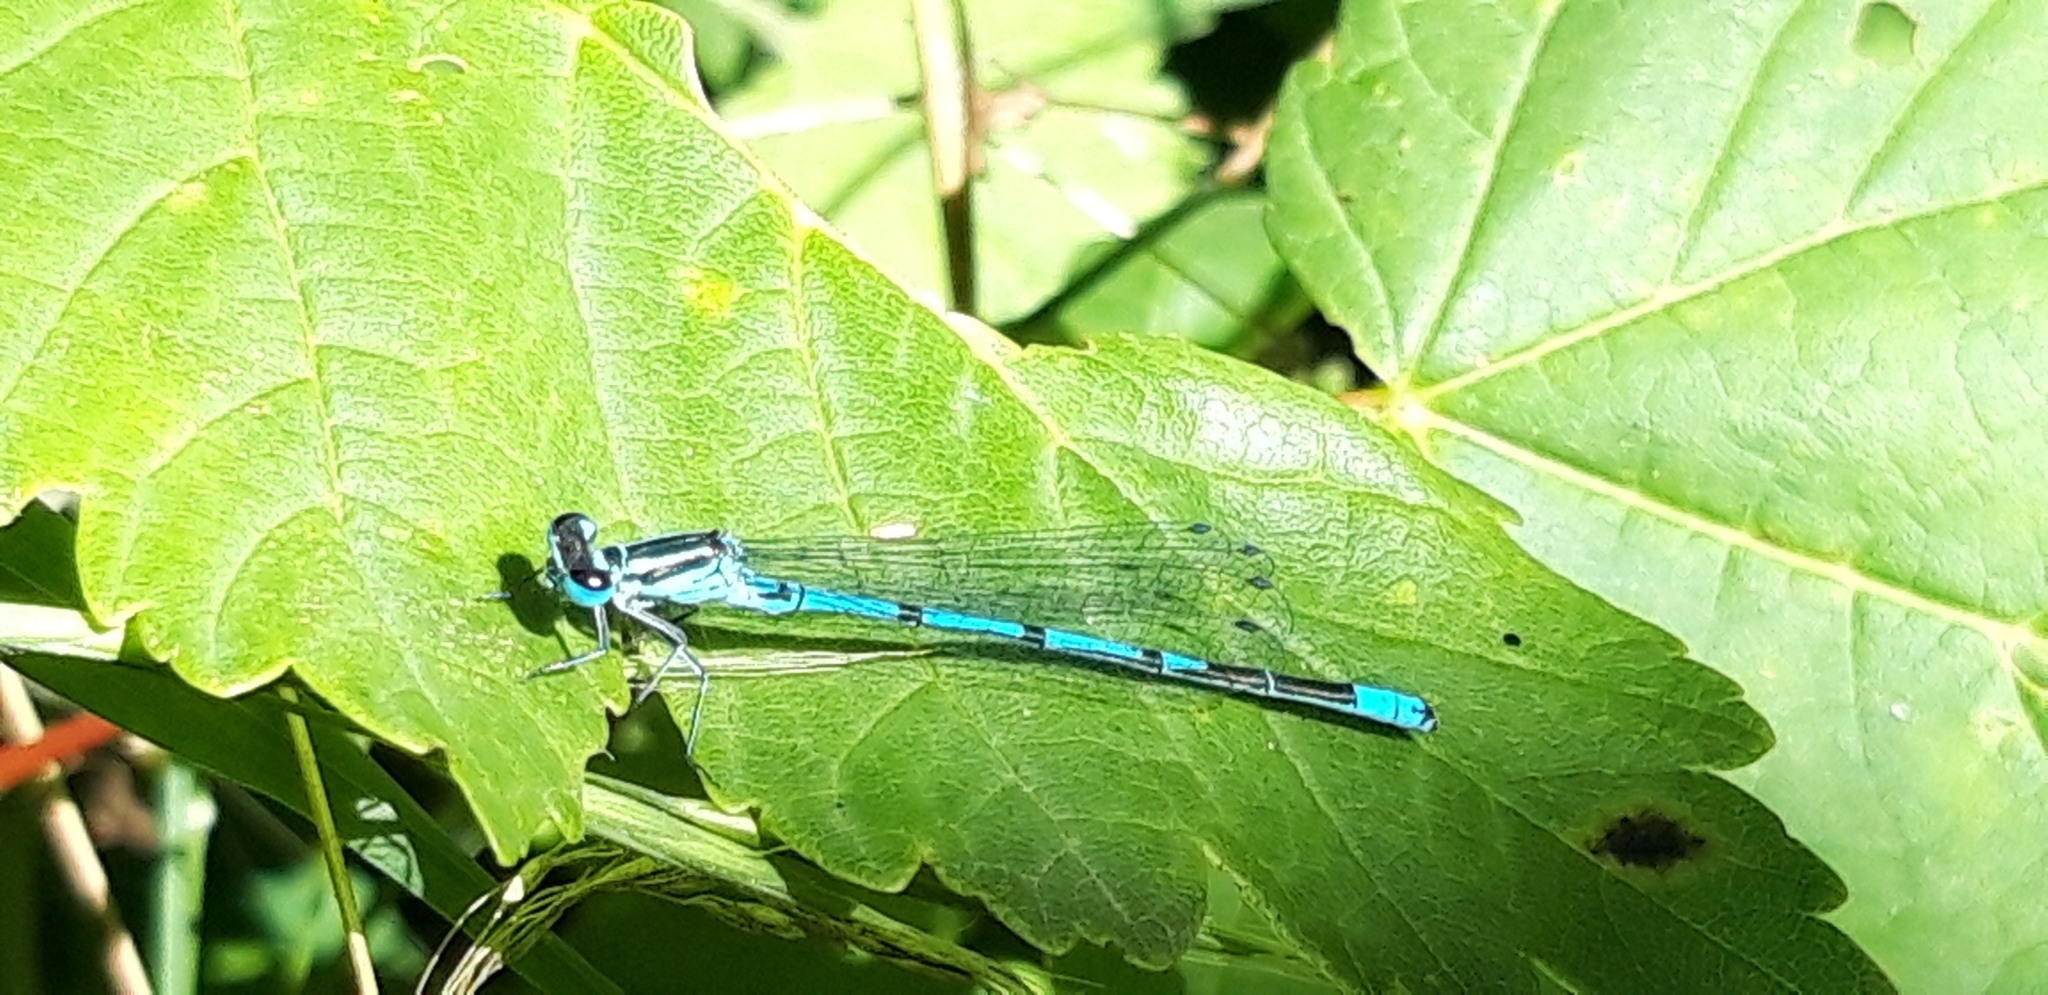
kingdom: Animalia
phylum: Arthropoda
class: Insecta
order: Odonata
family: Coenagrionidae
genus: Coenagrion
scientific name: Coenagrion puella
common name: Azure damselfly
